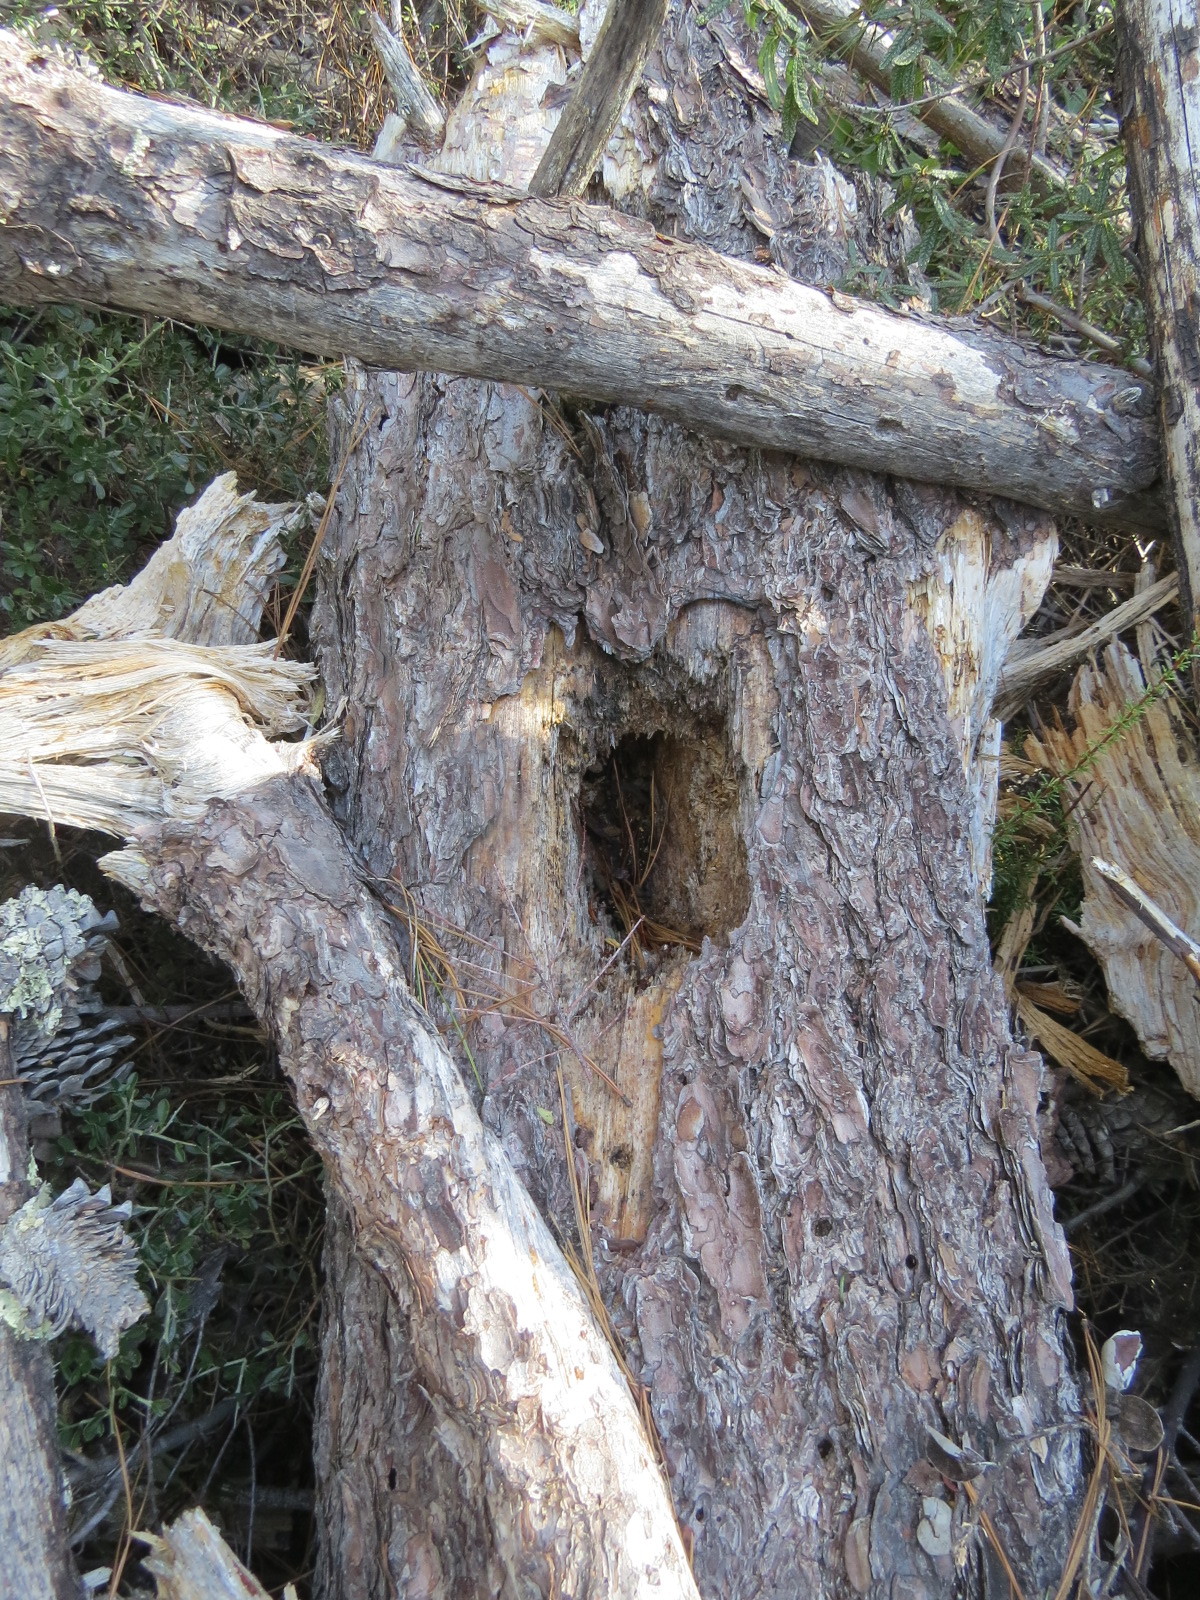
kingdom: Animalia
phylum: Chordata
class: Aves
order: Piciformes
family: Picidae
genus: Dryocopus
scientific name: Dryocopus pileatus
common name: Pileated woodpecker
